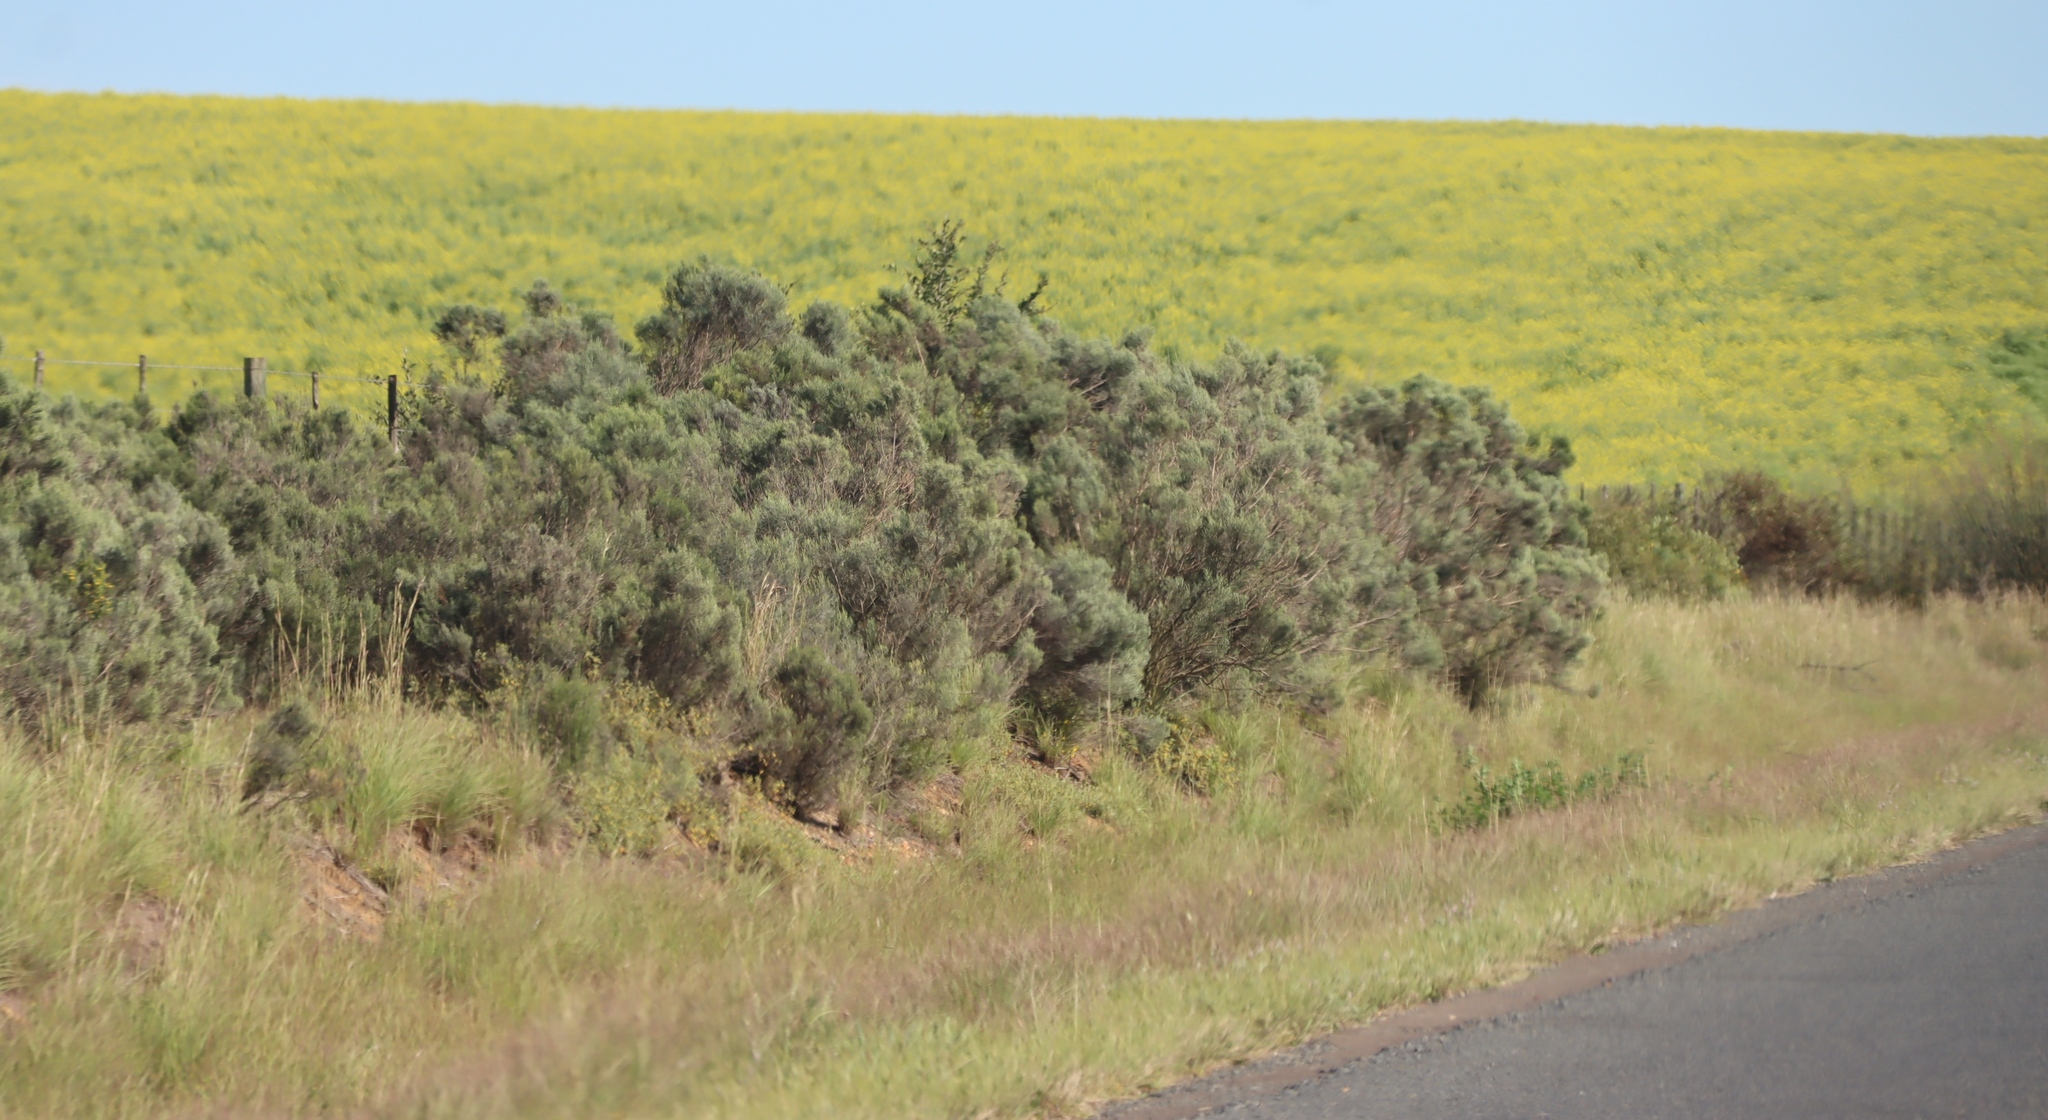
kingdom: Plantae
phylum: Tracheophyta
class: Magnoliopsida
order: Asterales
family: Asteraceae
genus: Dicerothamnus
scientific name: Dicerothamnus rhinocerotis
